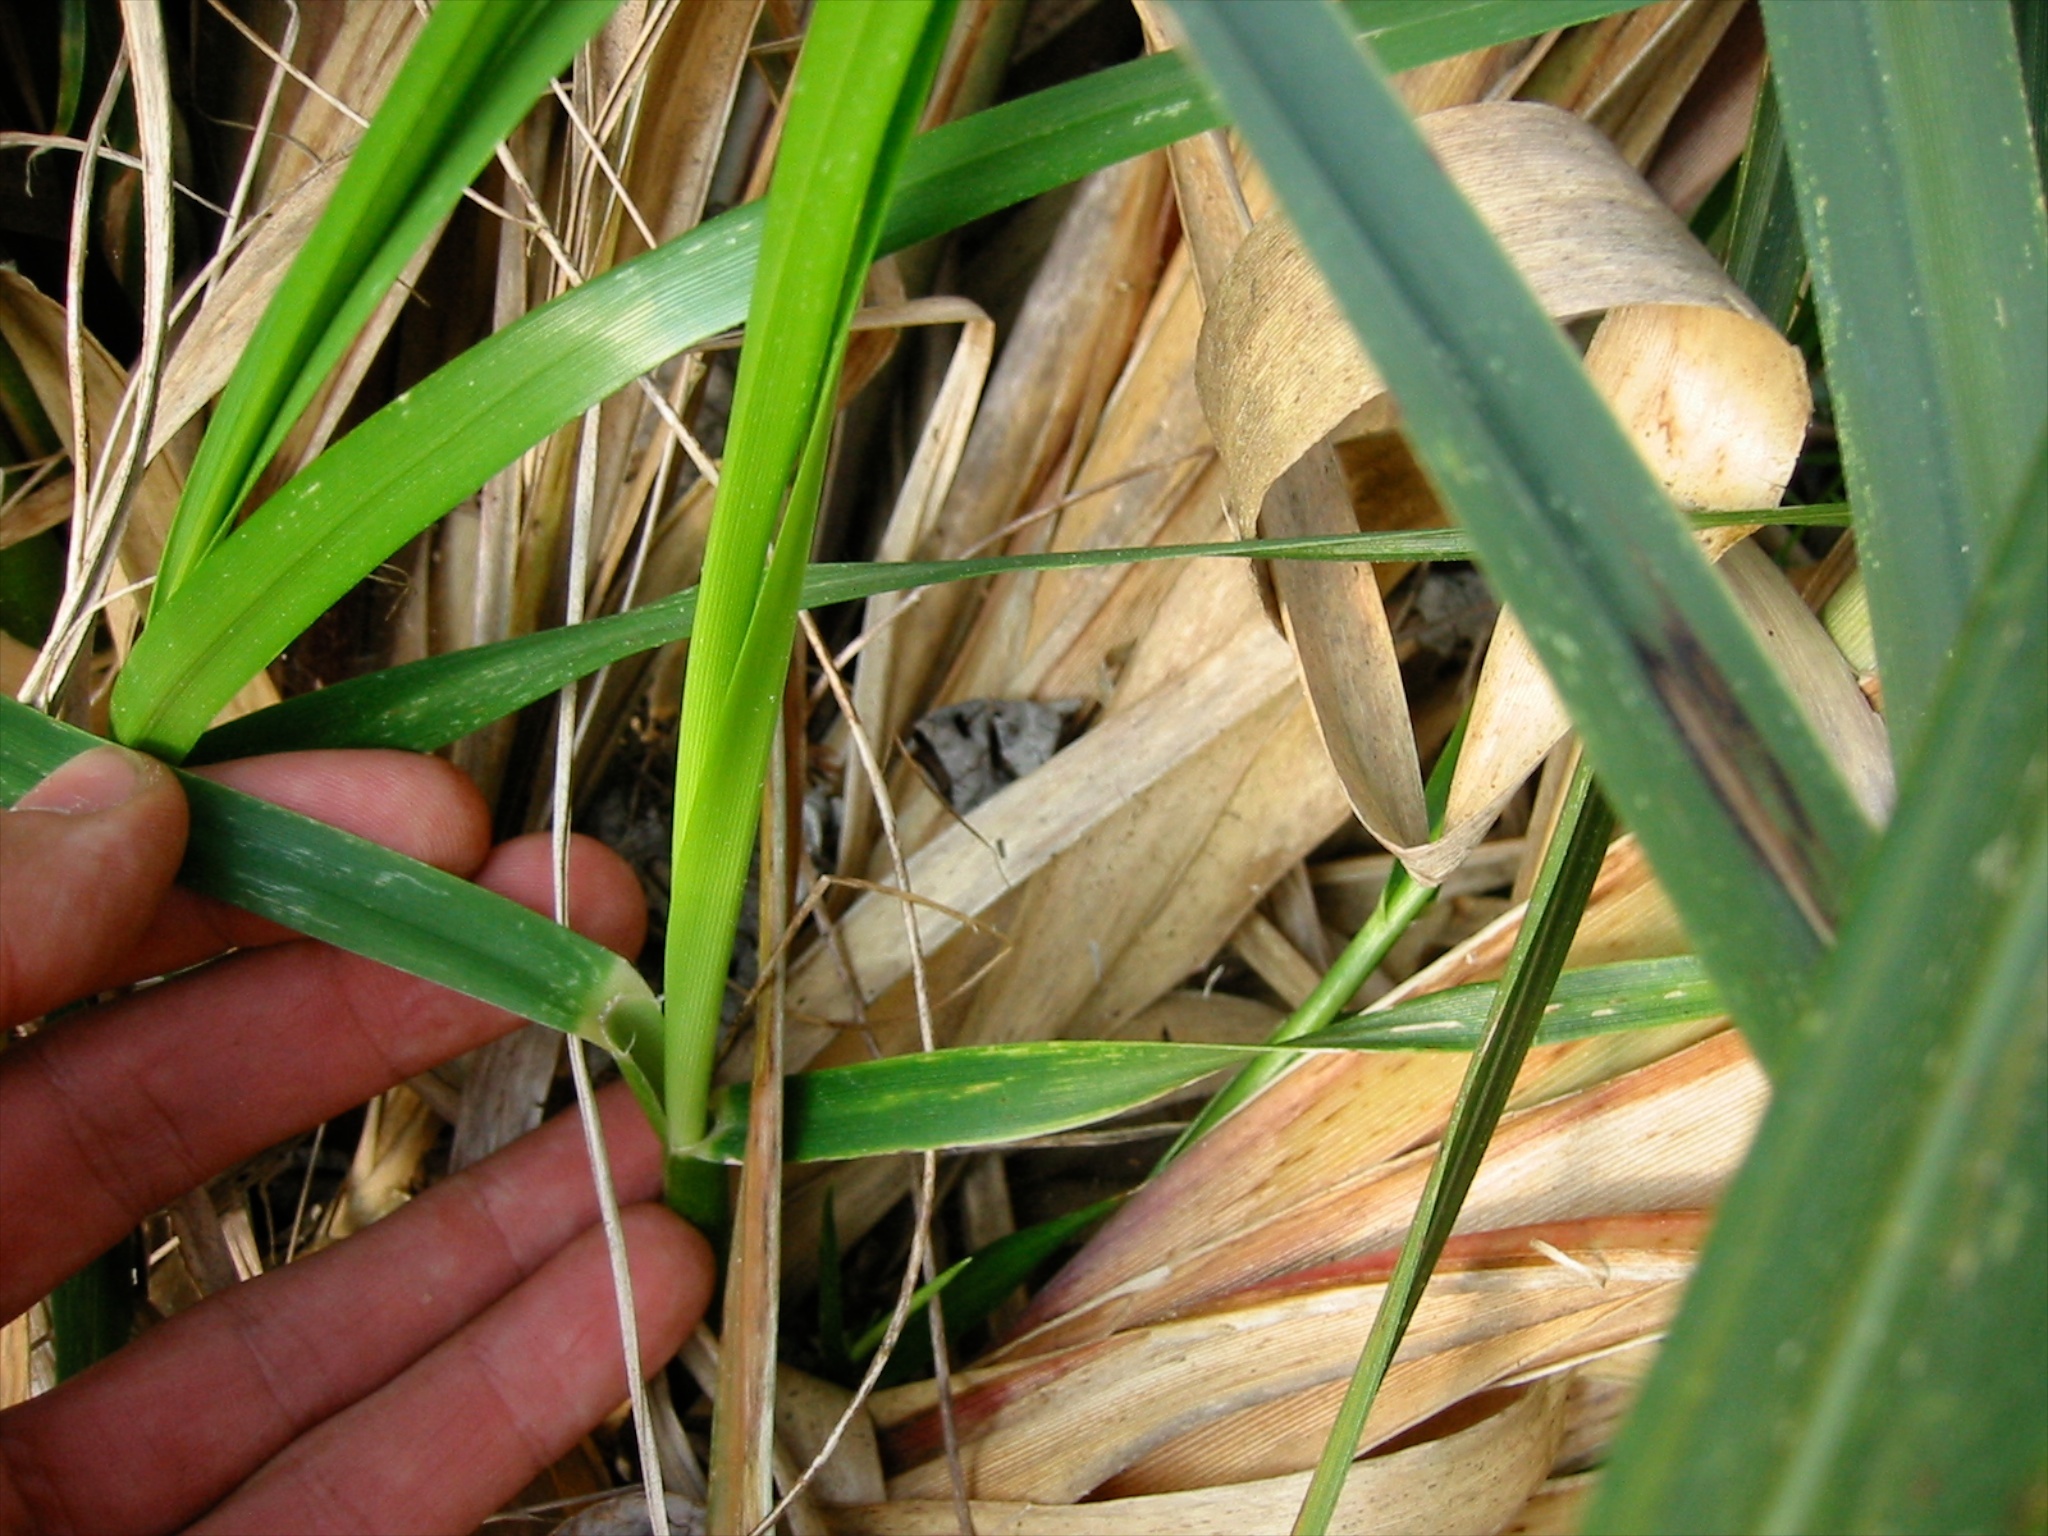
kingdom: Plantae
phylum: Tracheophyta
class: Liliopsida
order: Poales
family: Poaceae
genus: Cortaderia
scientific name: Cortaderia selloana
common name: Uruguayan pampas grass
